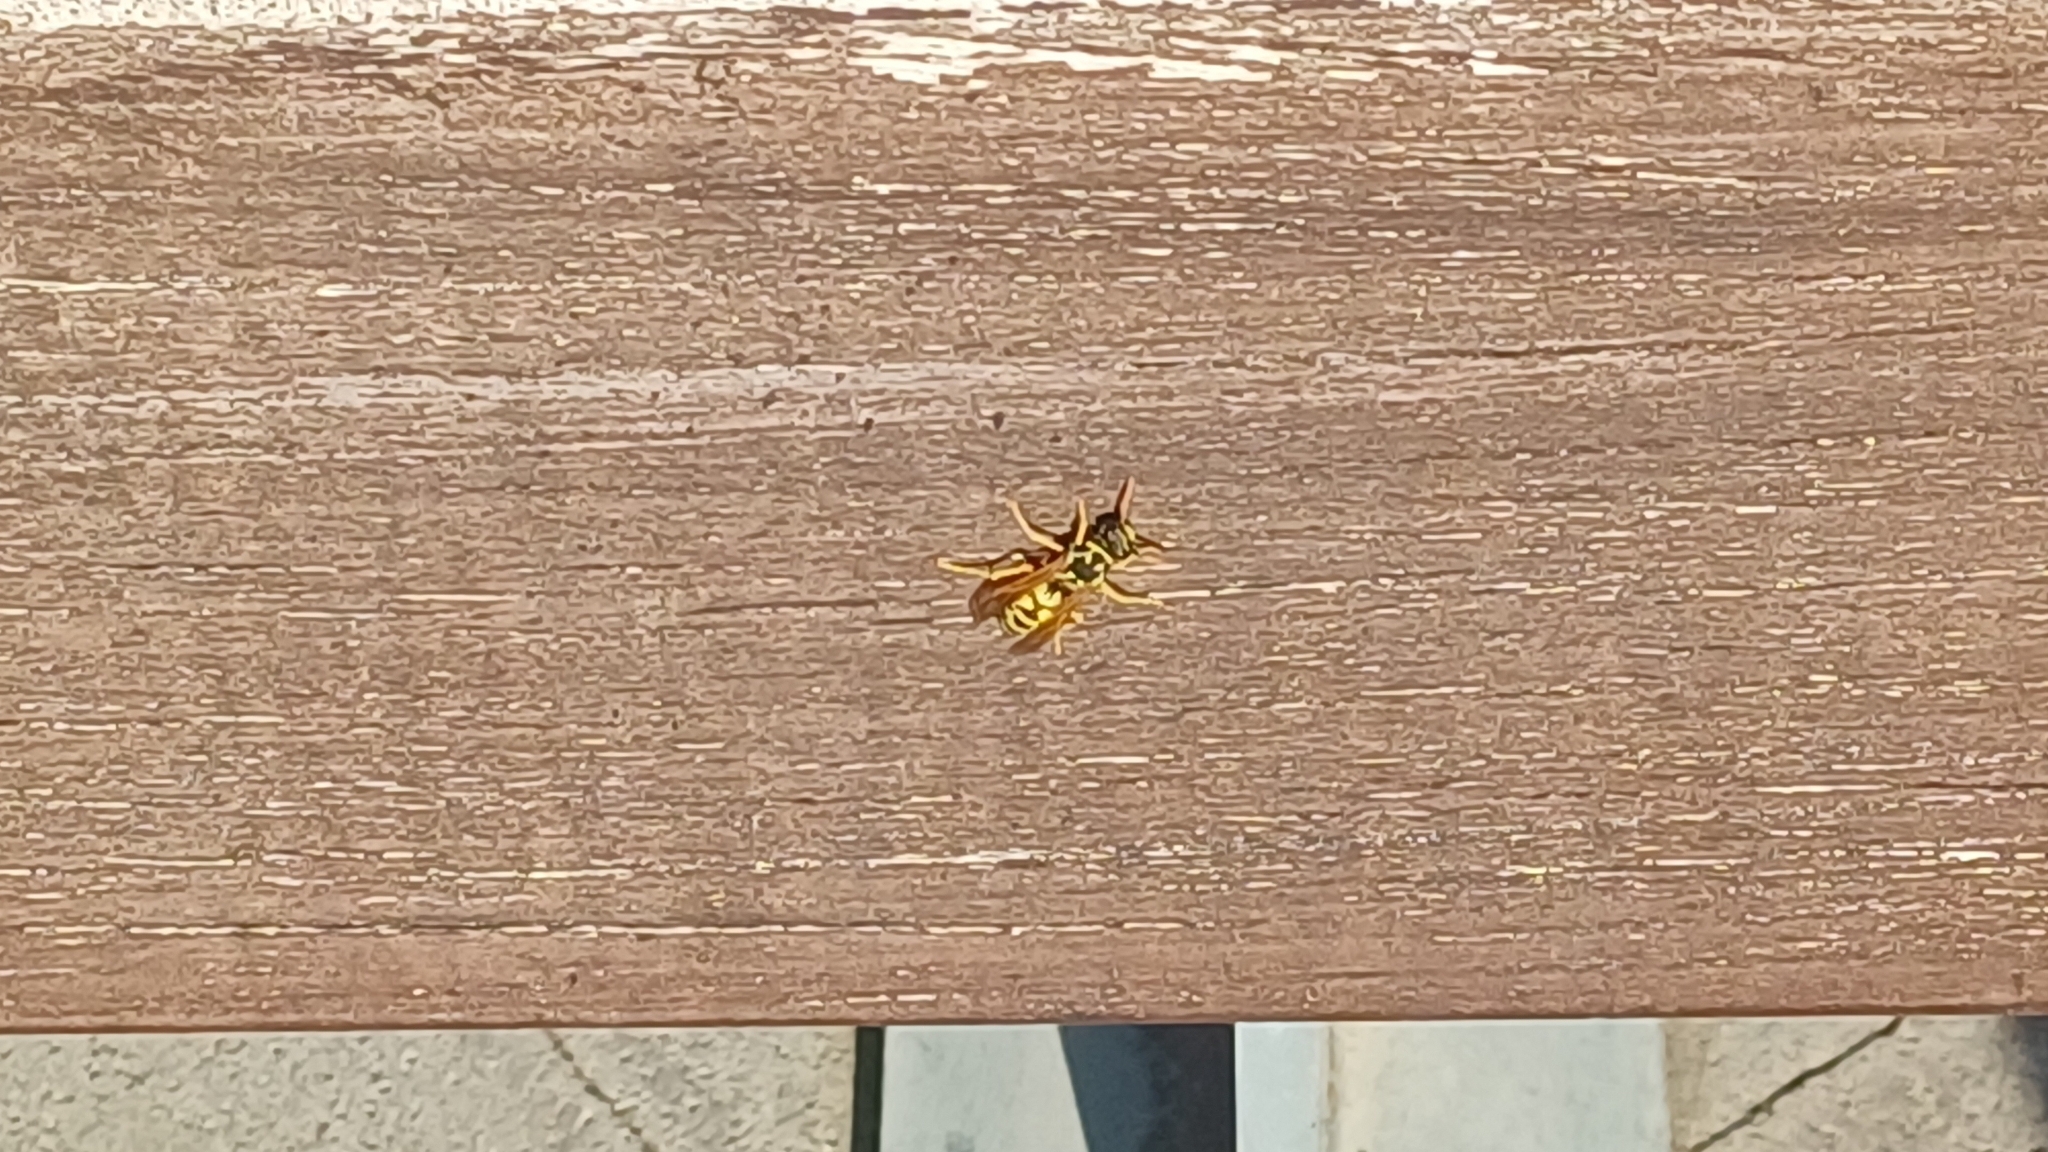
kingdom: Animalia
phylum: Arthropoda
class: Insecta
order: Hymenoptera
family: Eumenidae
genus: Polistes
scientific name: Polistes dominula
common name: Paper wasp
